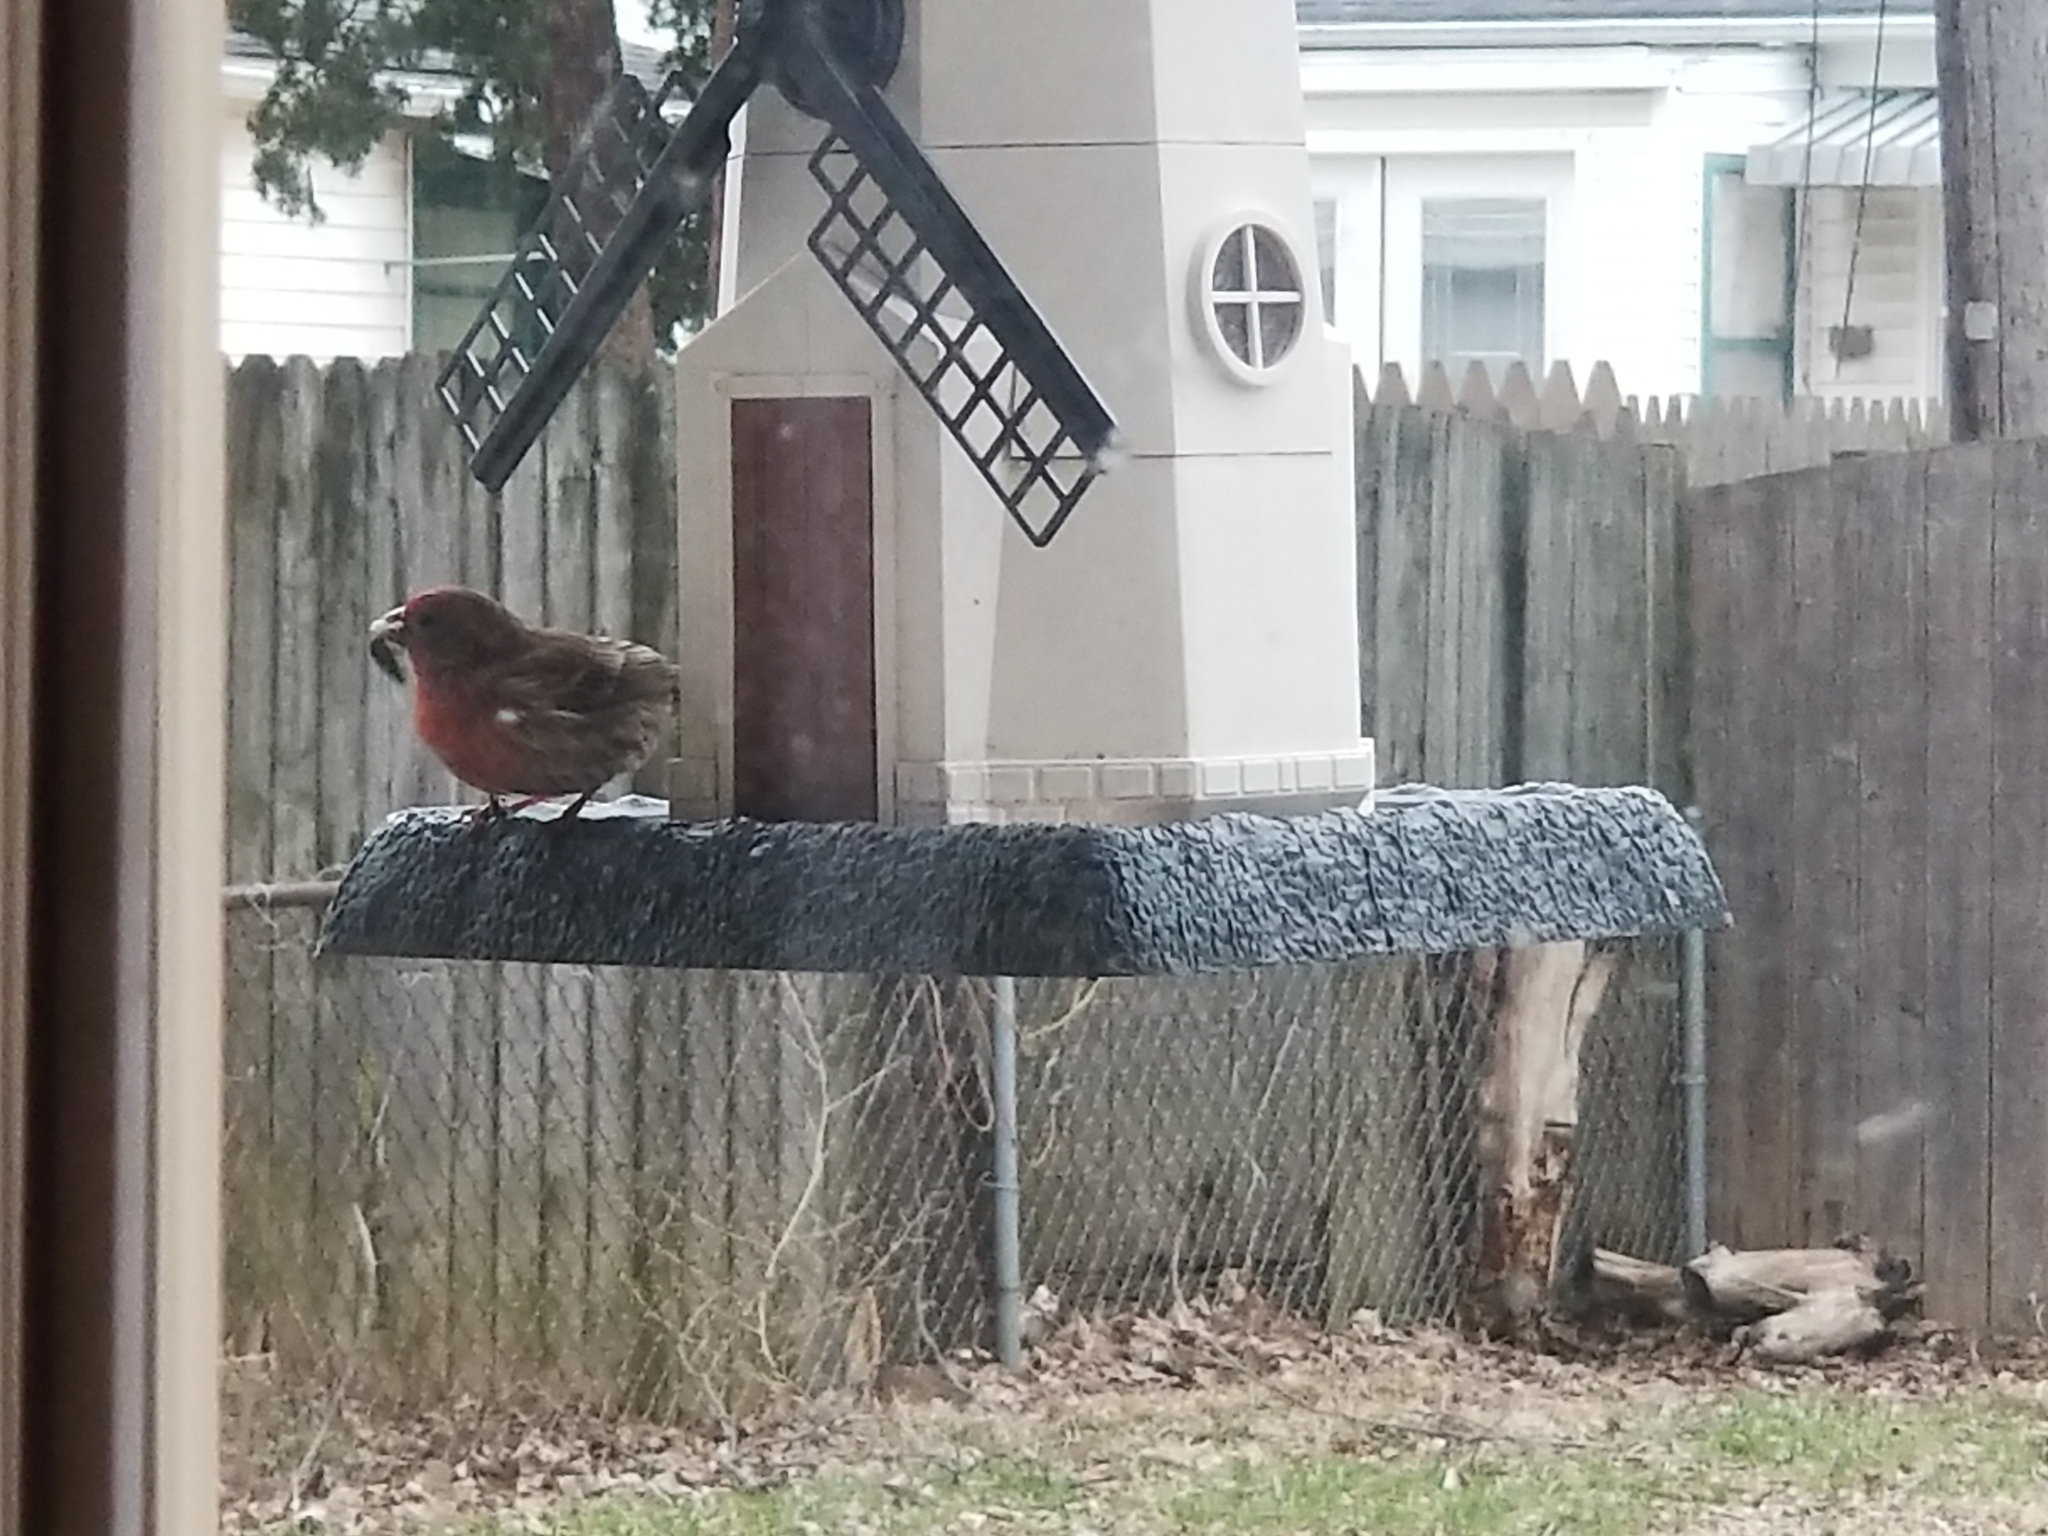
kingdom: Animalia
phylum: Chordata
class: Aves
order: Passeriformes
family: Fringillidae
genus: Haemorhous
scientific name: Haemorhous mexicanus
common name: House finch
